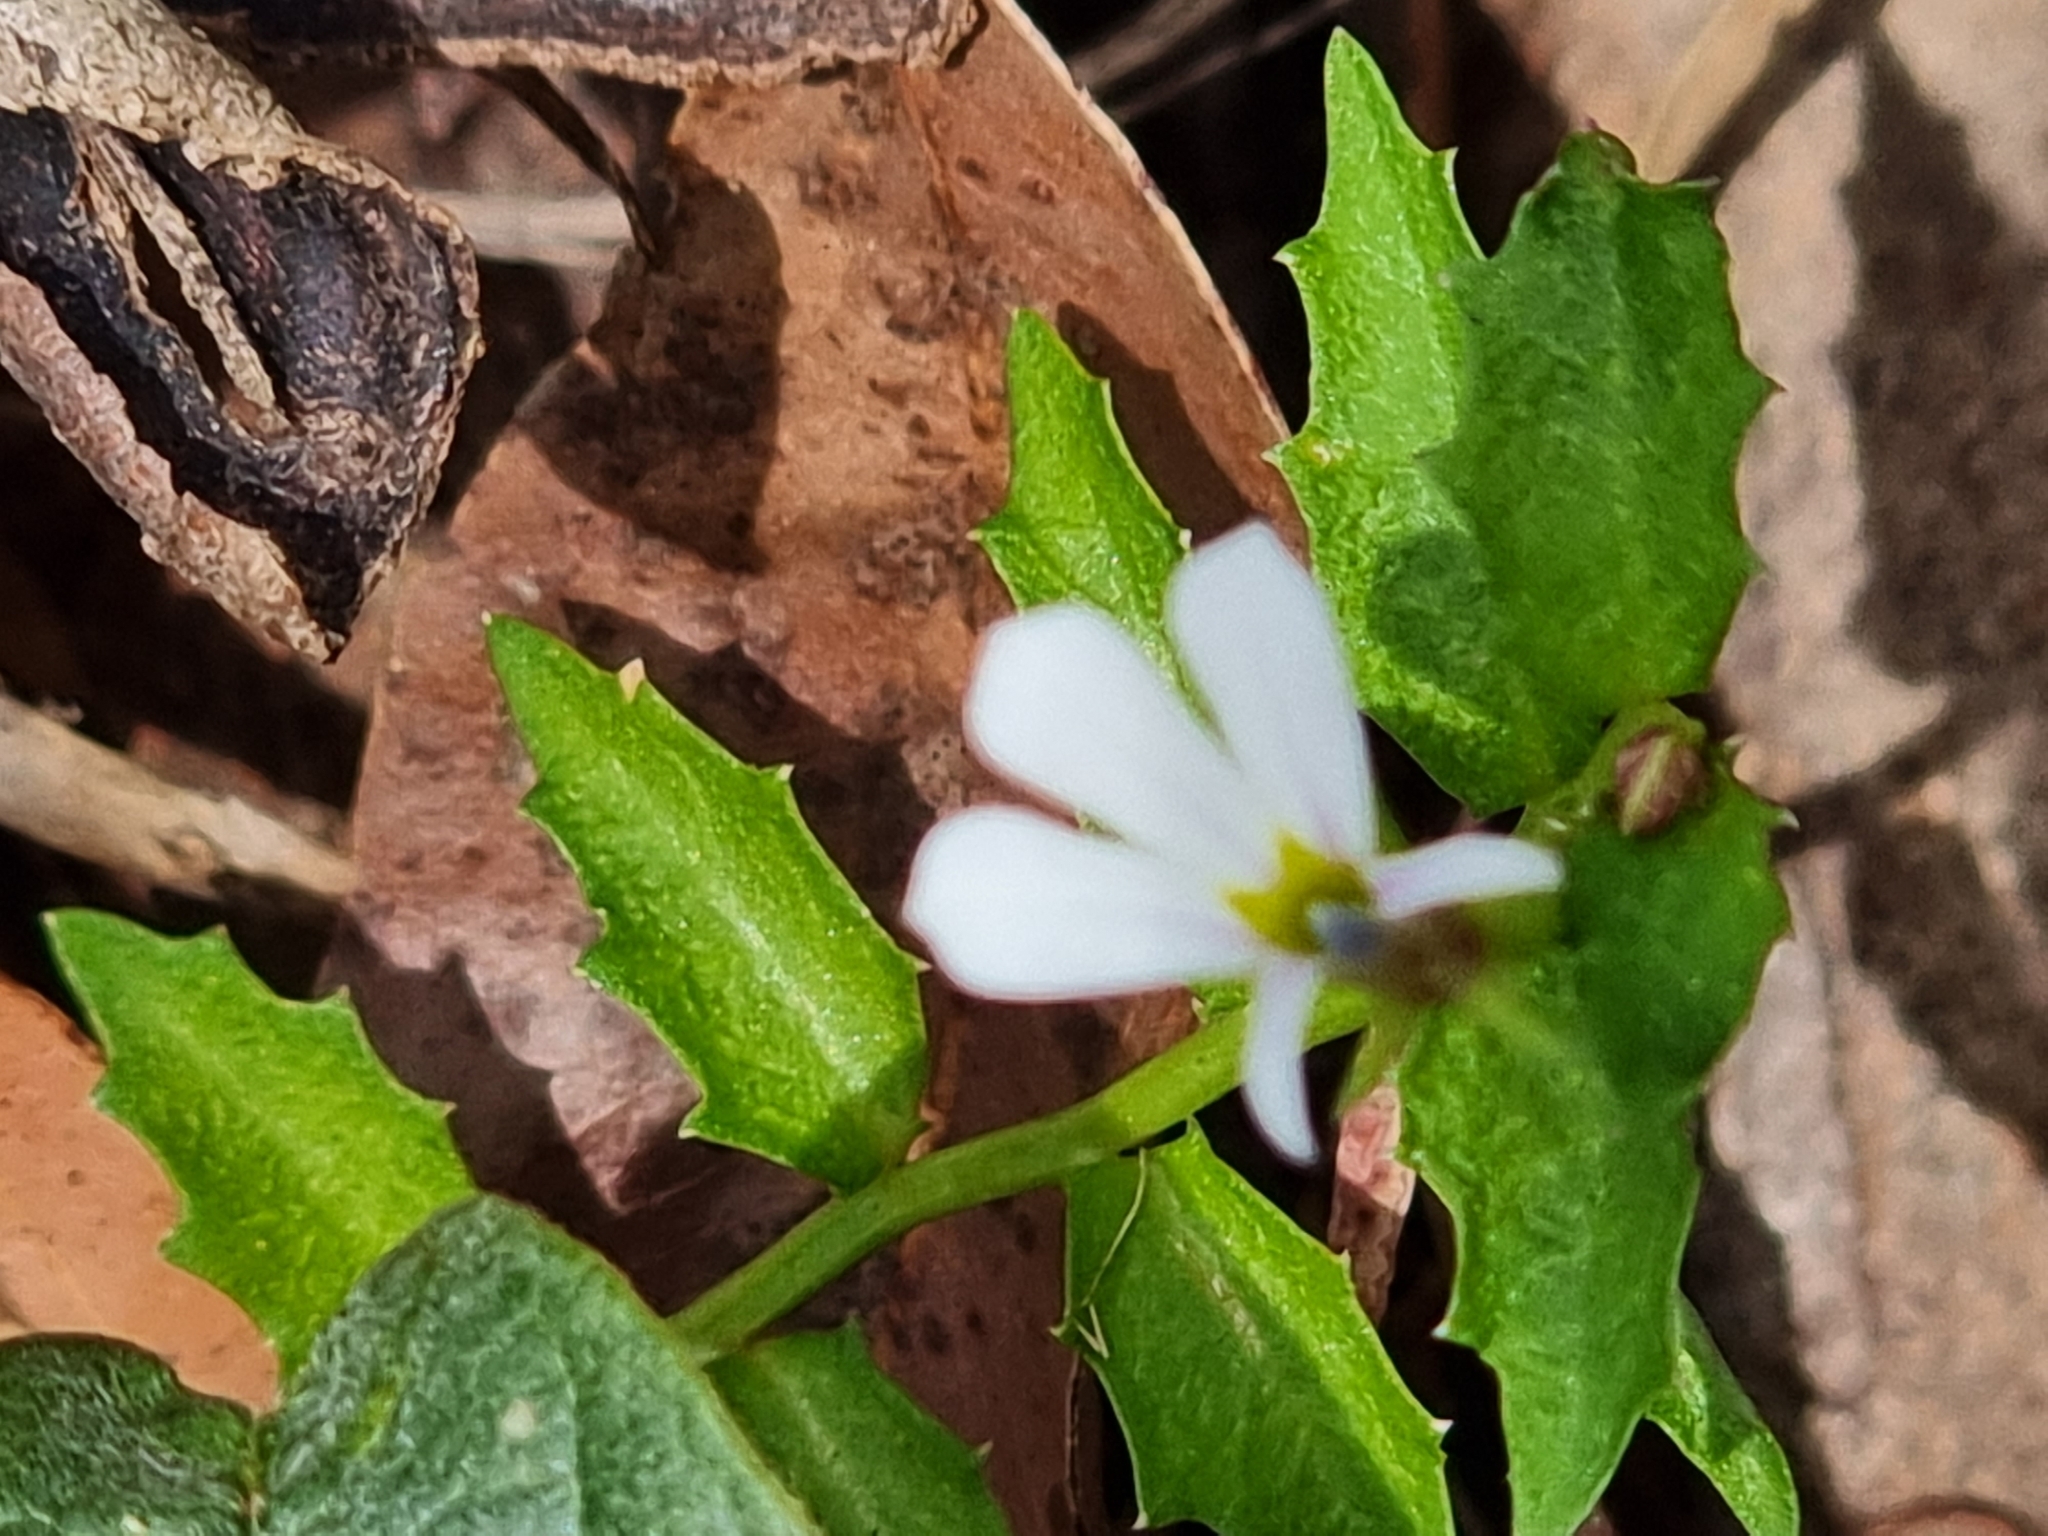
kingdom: Plantae
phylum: Tracheophyta
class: Magnoliopsida
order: Asterales
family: Campanulaceae
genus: Lobelia
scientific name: Lobelia purpurascens
